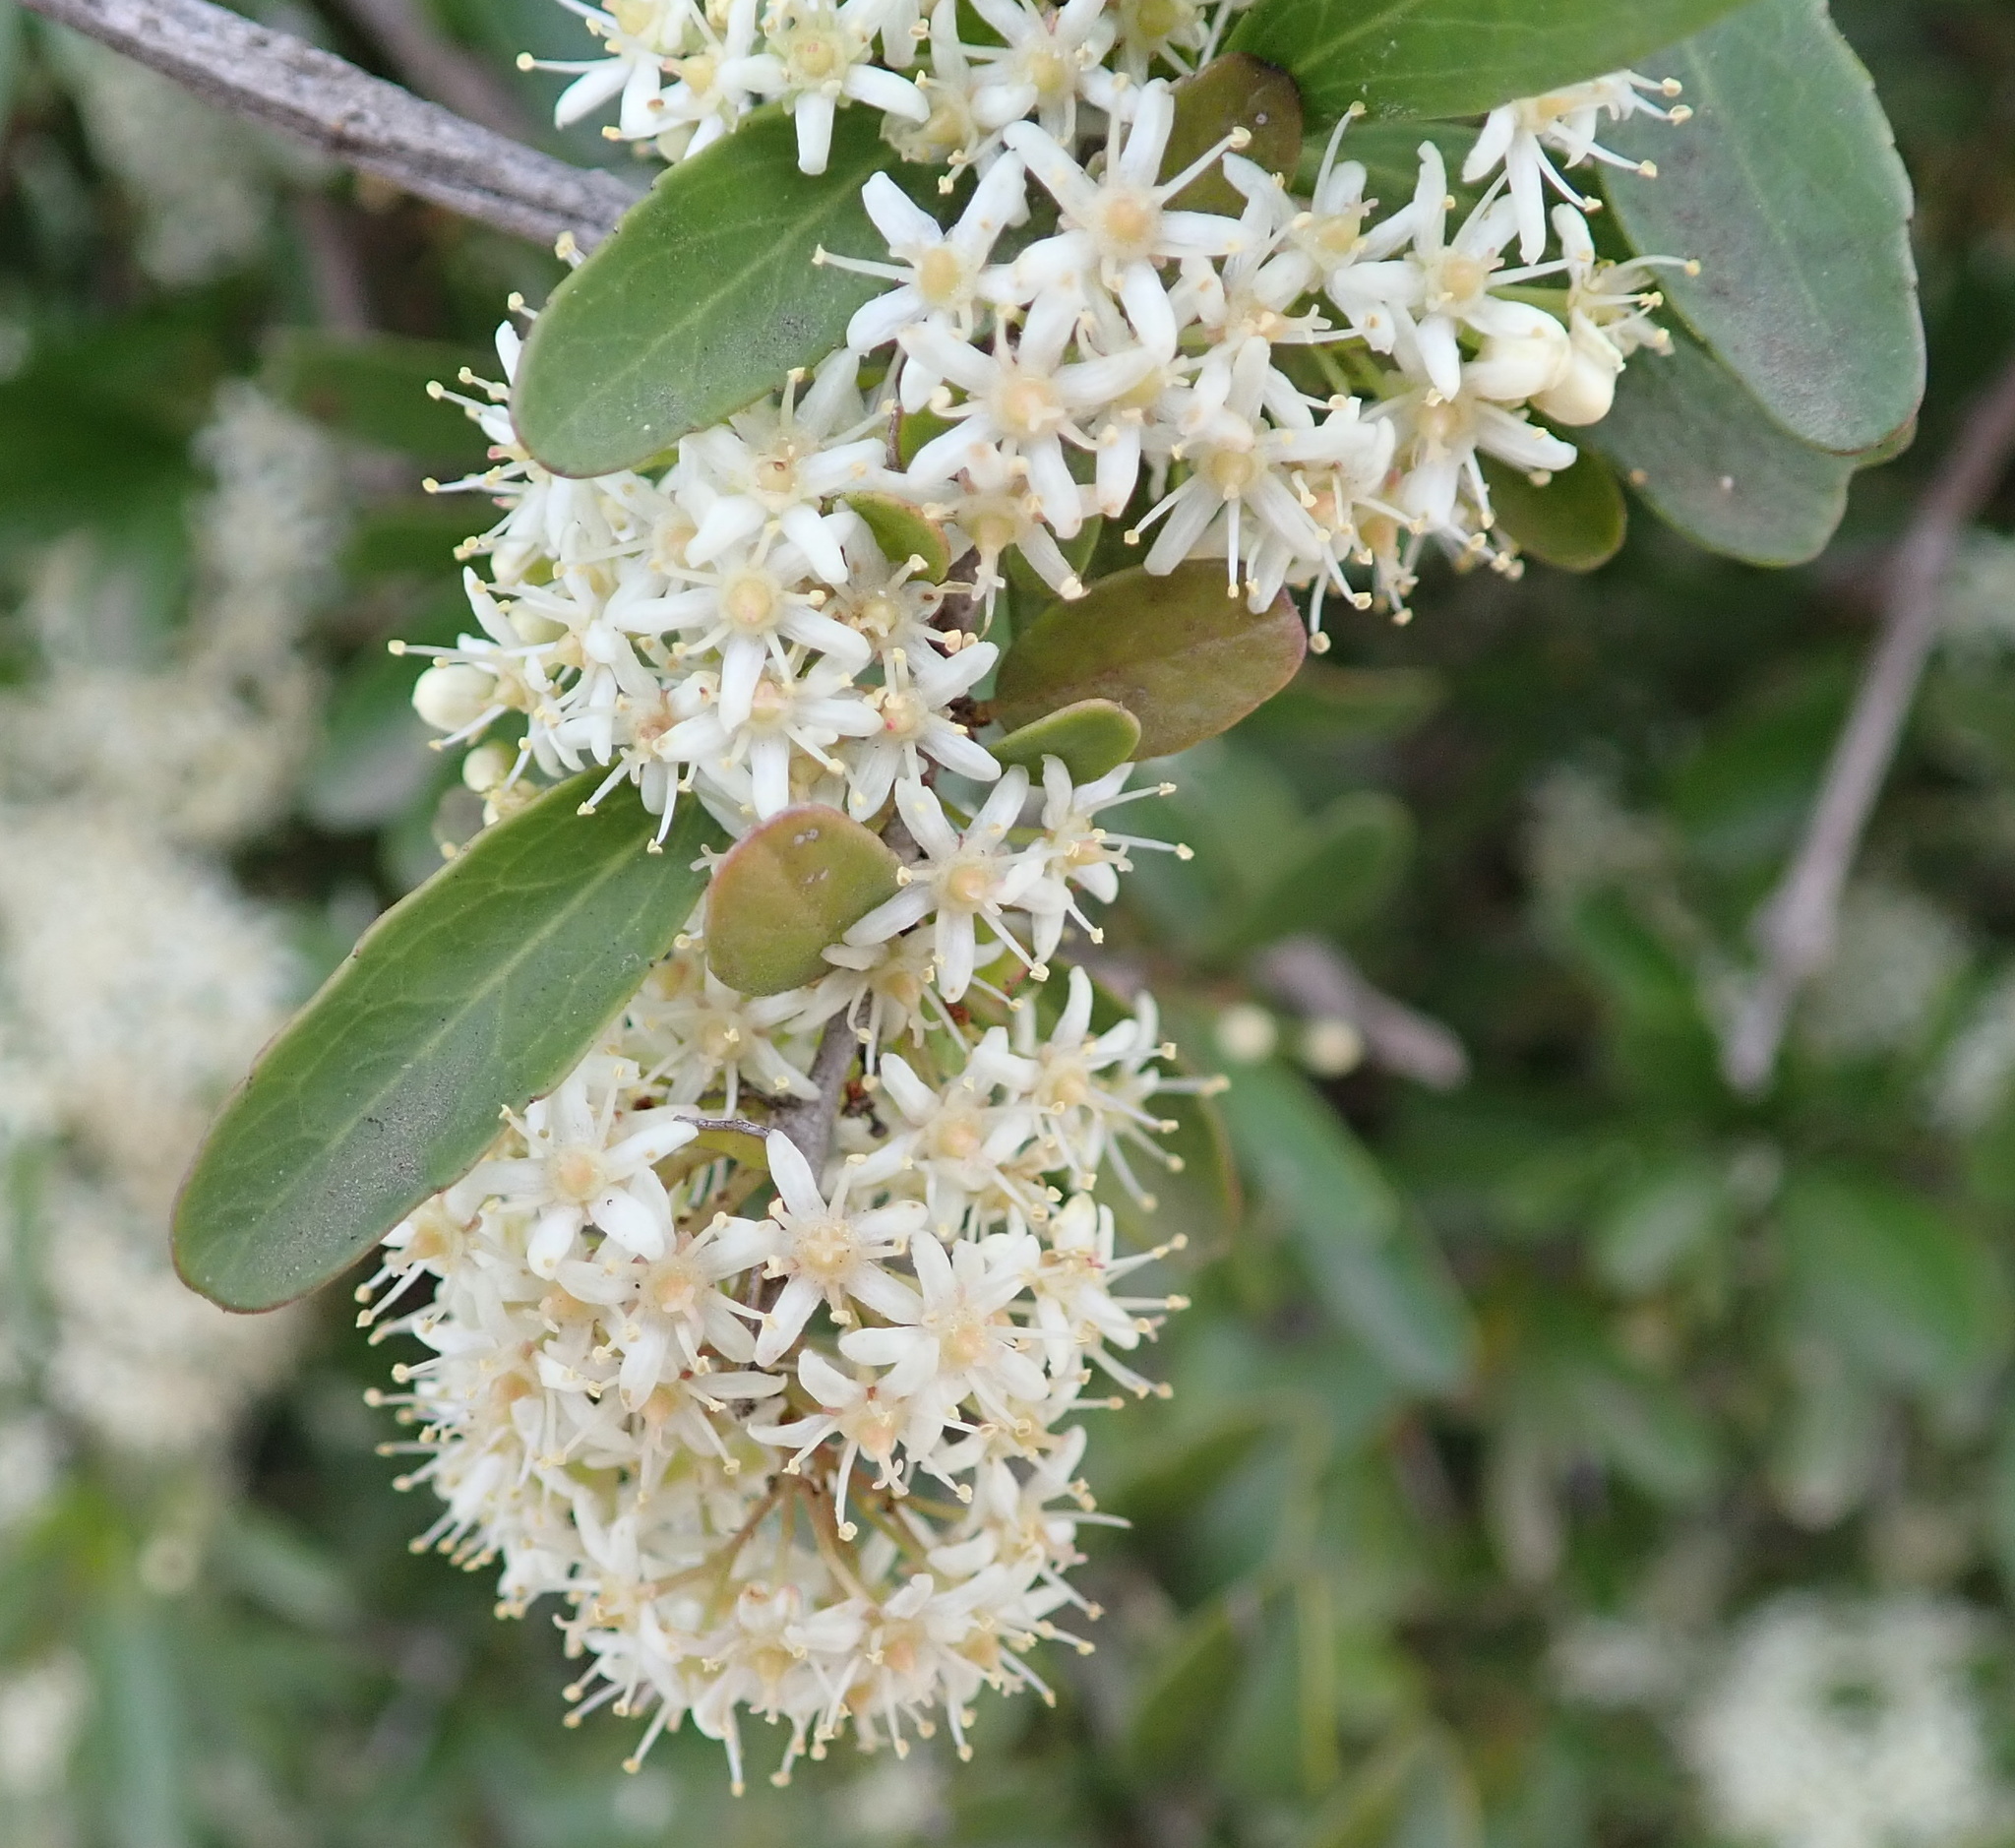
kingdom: Plantae
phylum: Tracheophyta
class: Magnoliopsida
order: Celastrales
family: Celastraceae
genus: Gymnosporia
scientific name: Gymnosporia polyacantha
